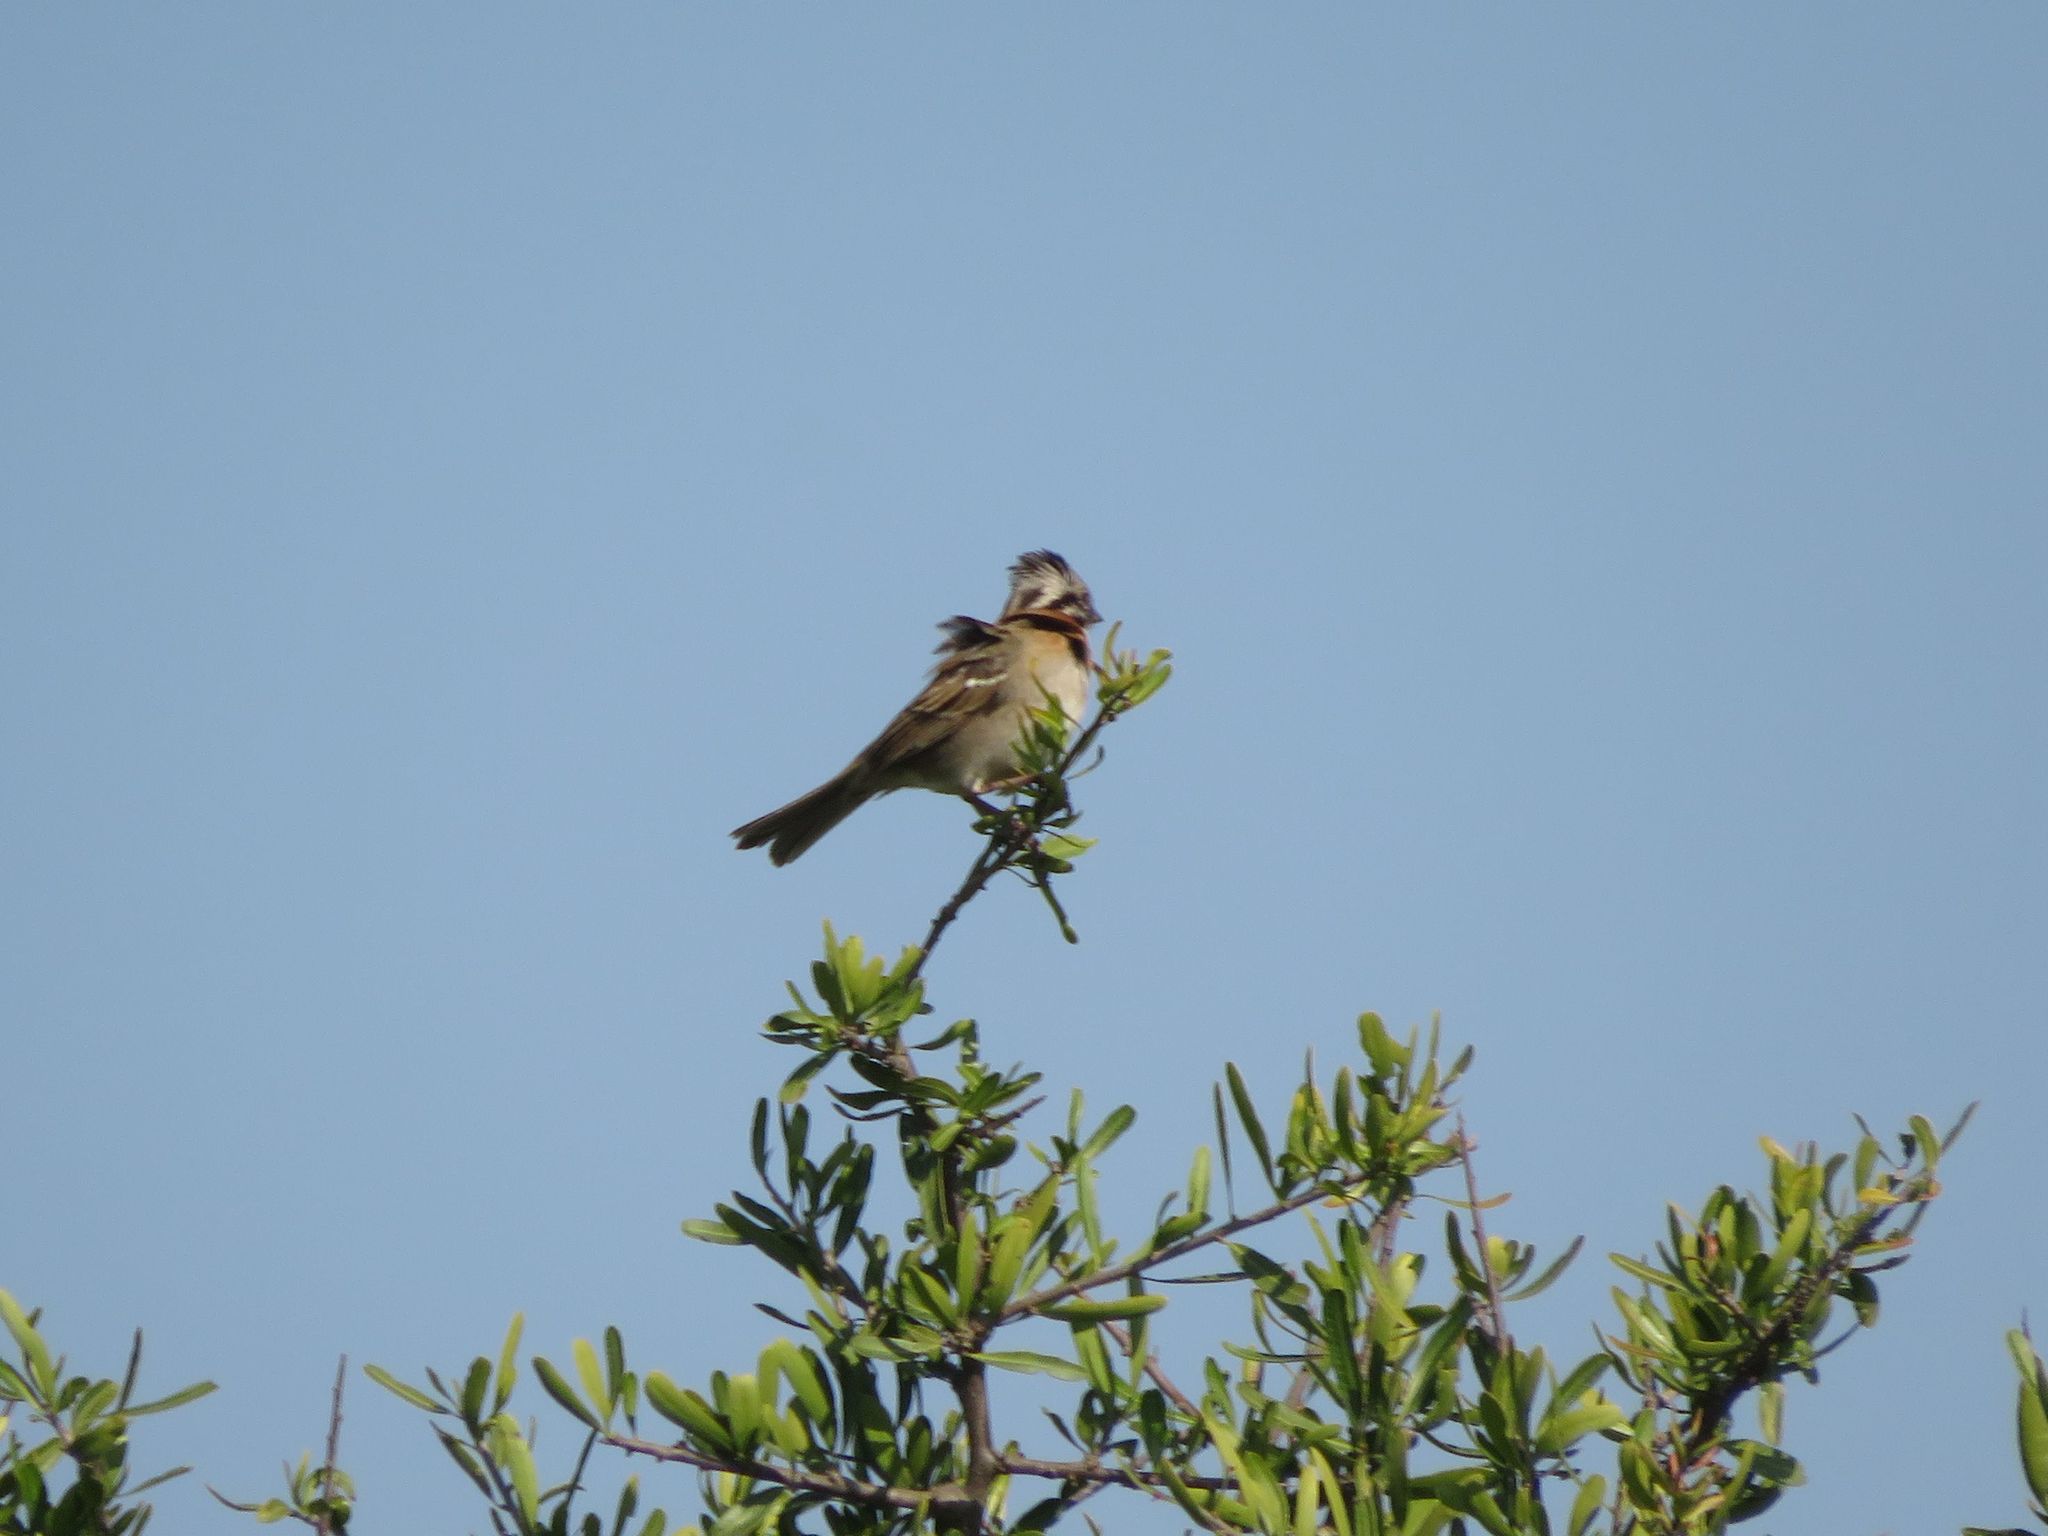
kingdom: Animalia
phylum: Chordata
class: Aves
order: Passeriformes
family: Passerellidae
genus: Zonotrichia
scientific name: Zonotrichia capensis
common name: Rufous-collared sparrow
